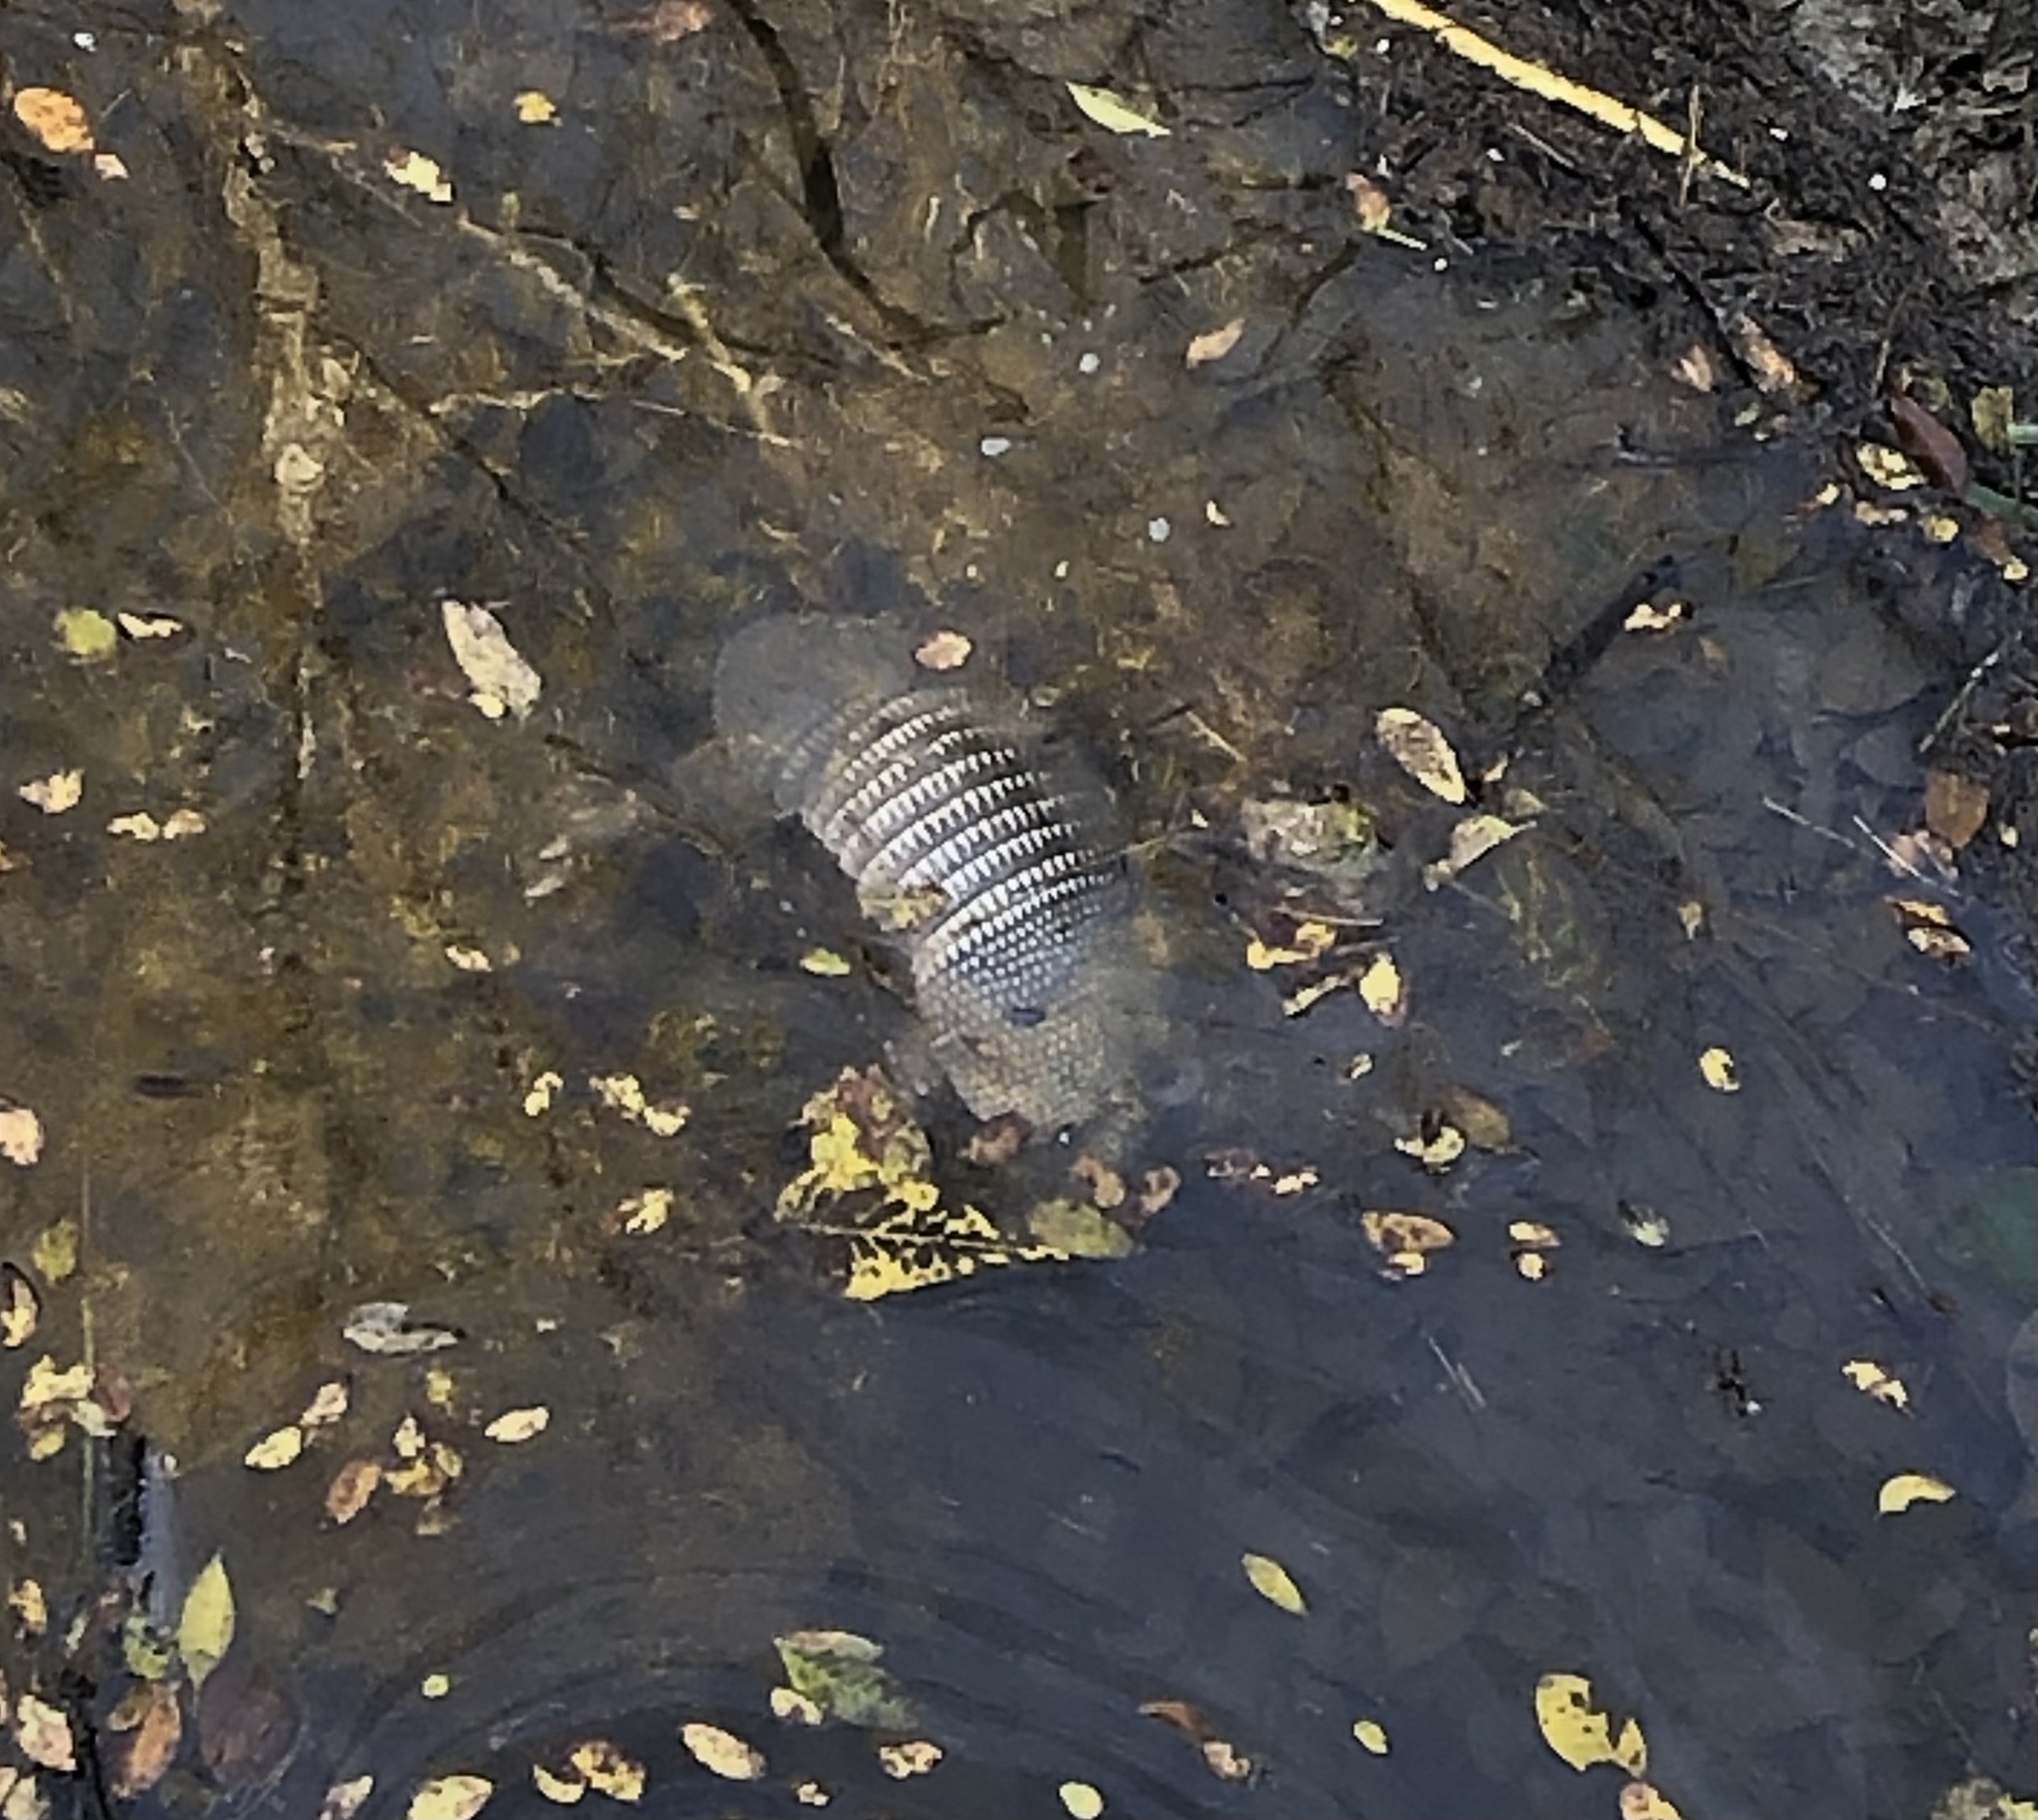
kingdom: Animalia
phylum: Chordata
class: Mammalia
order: Cingulata
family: Dasypodidae
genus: Dasypus
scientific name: Dasypus novemcinctus
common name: Nine-banded armadillo
